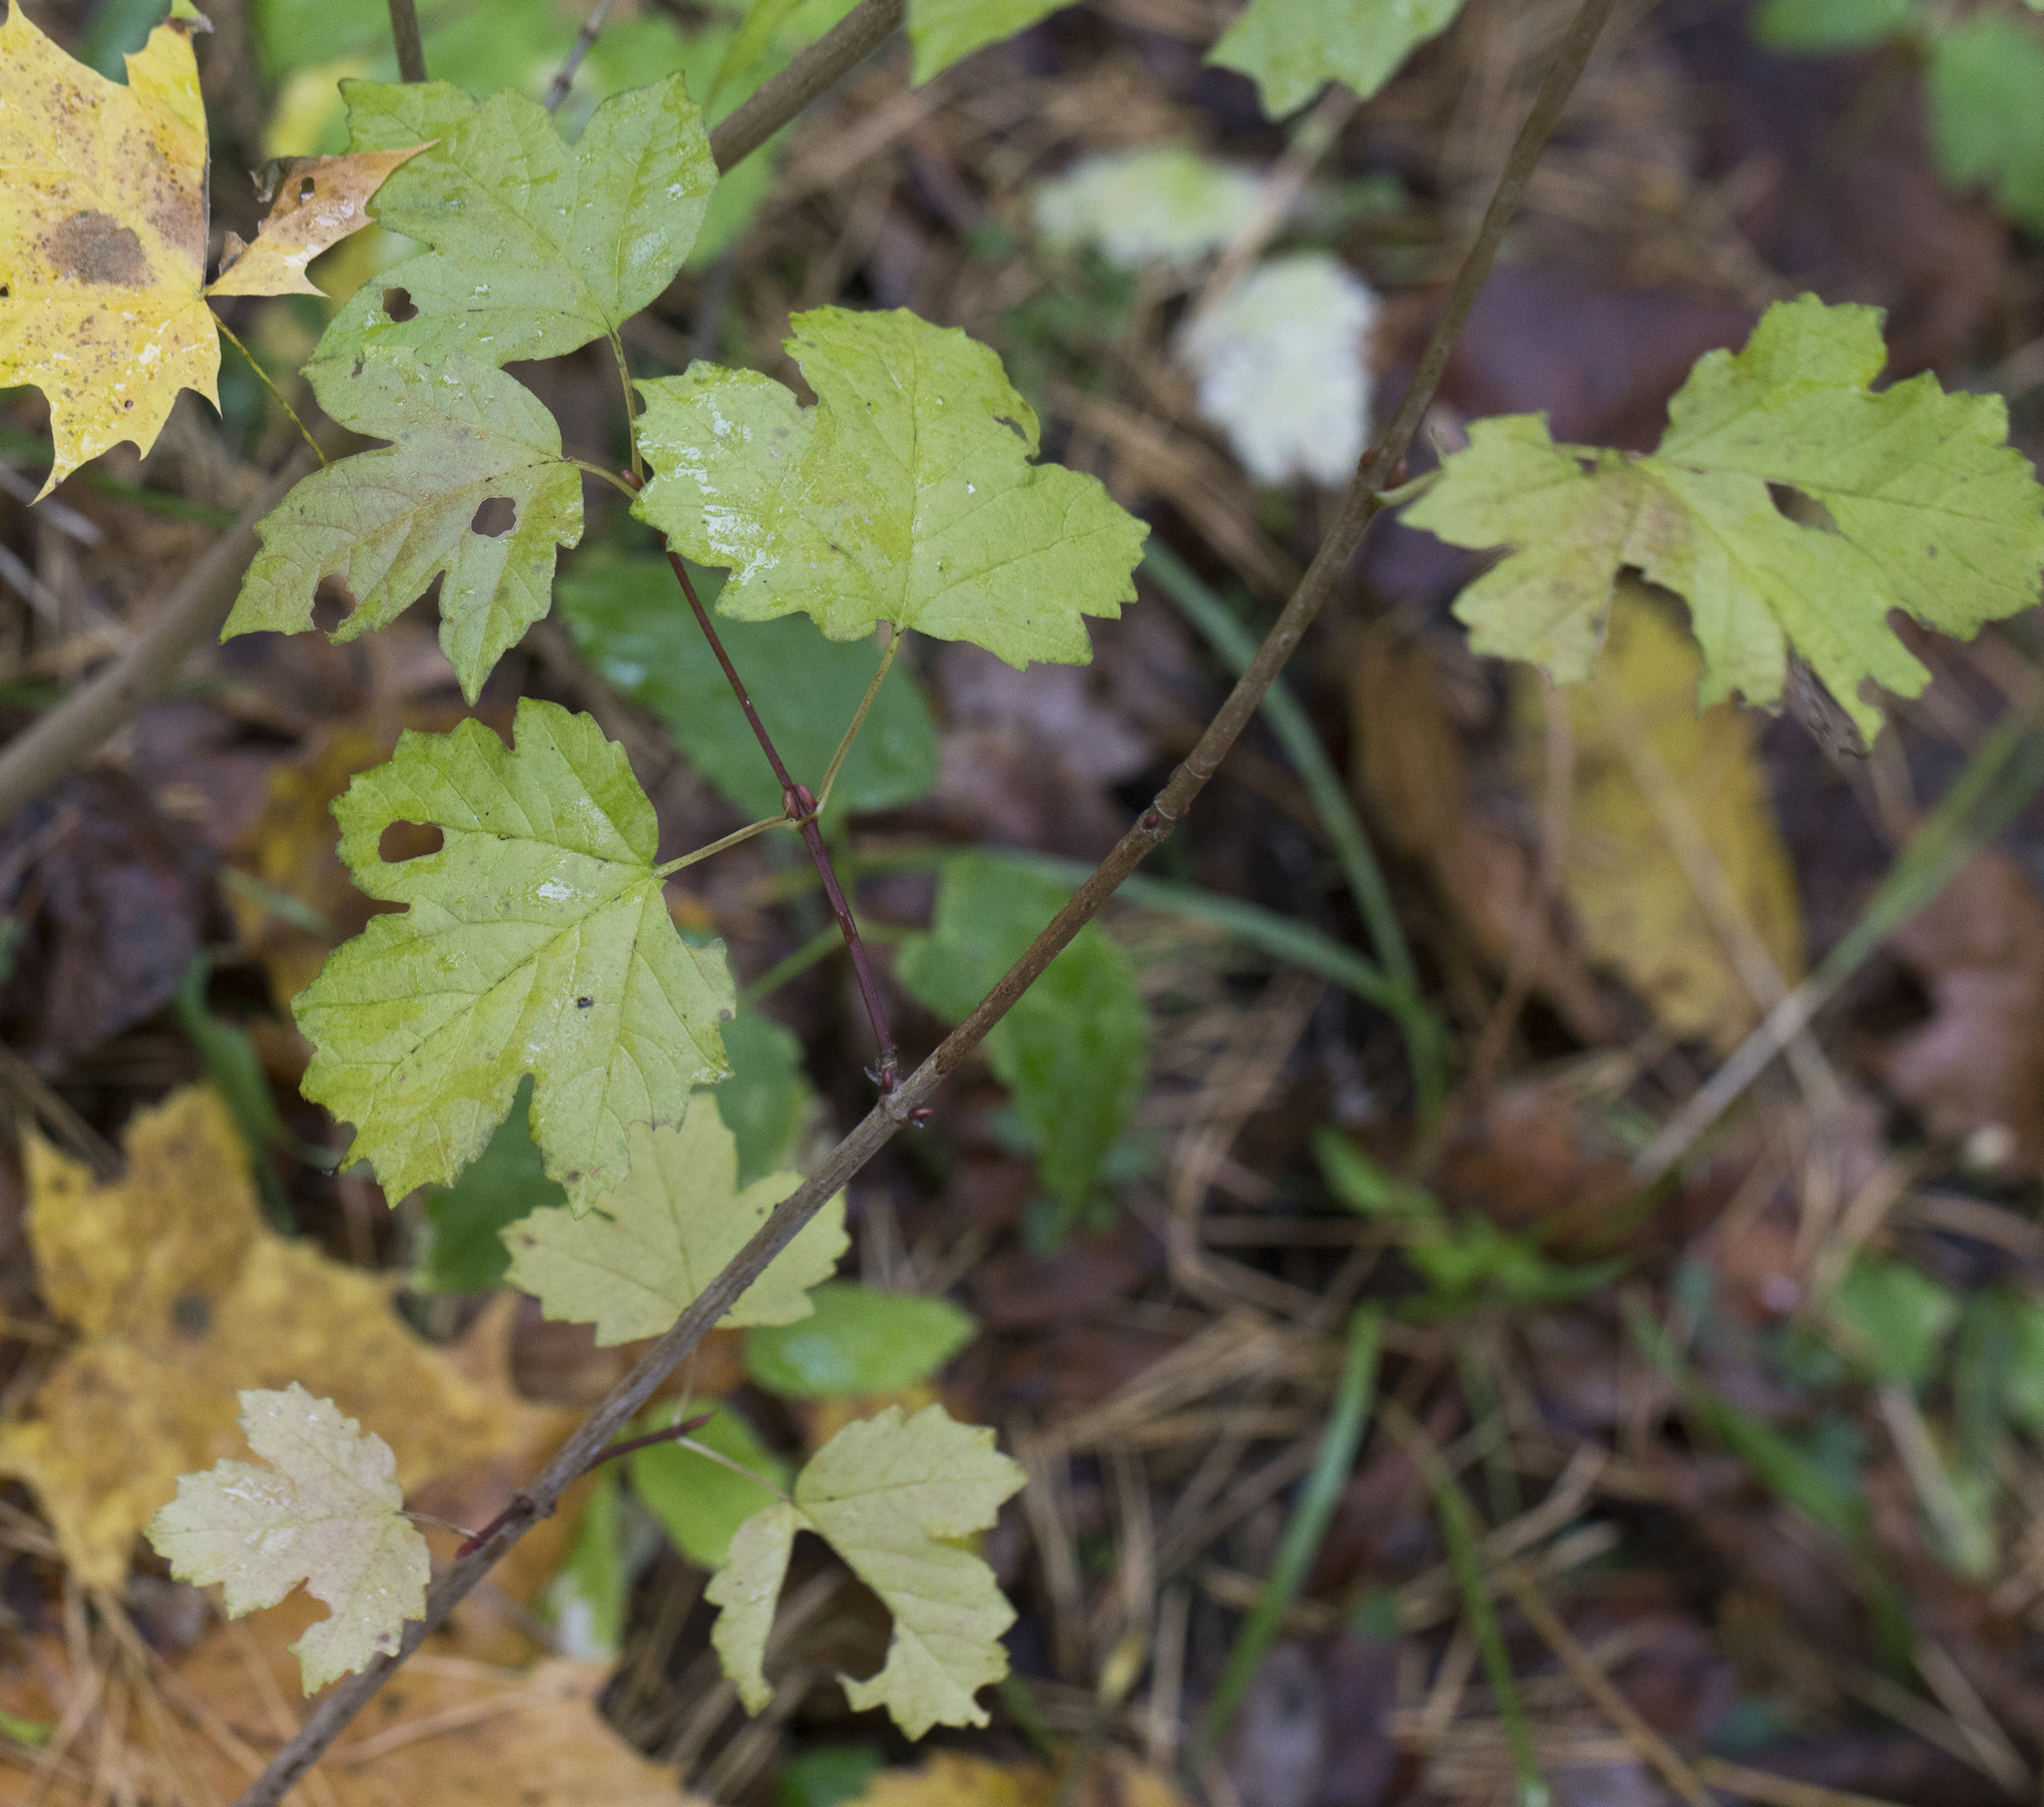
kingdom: Plantae
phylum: Tracheophyta
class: Magnoliopsida
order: Dipsacales
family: Viburnaceae
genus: Viburnum
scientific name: Viburnum opulus
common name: Guelder-rose
